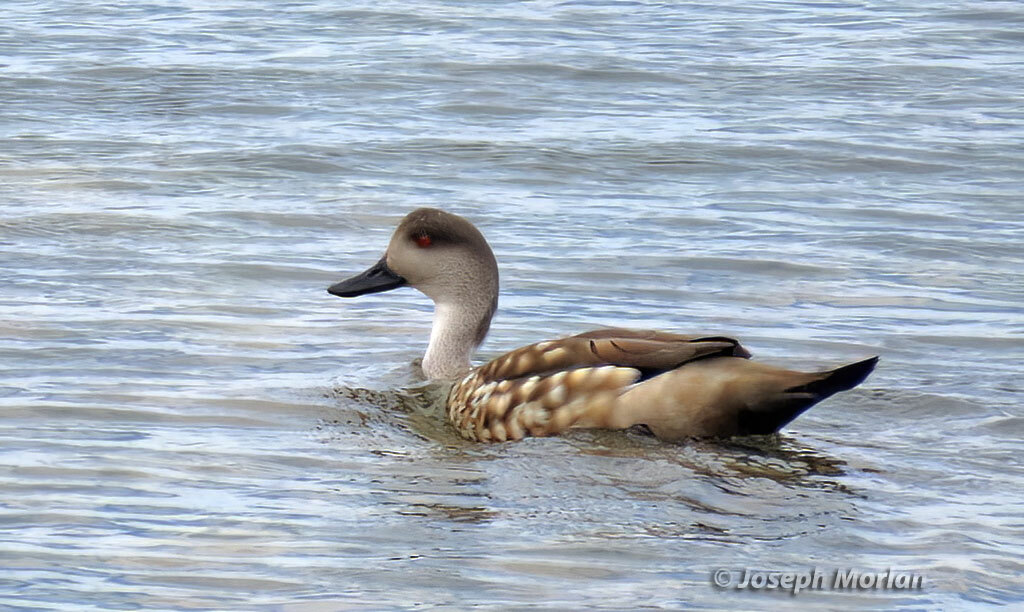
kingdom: Animalia
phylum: Chordata
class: Aves
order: Anseriformes
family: Anatidae
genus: Lophonetta
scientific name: Lophonetta specularioides
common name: Crested duck
